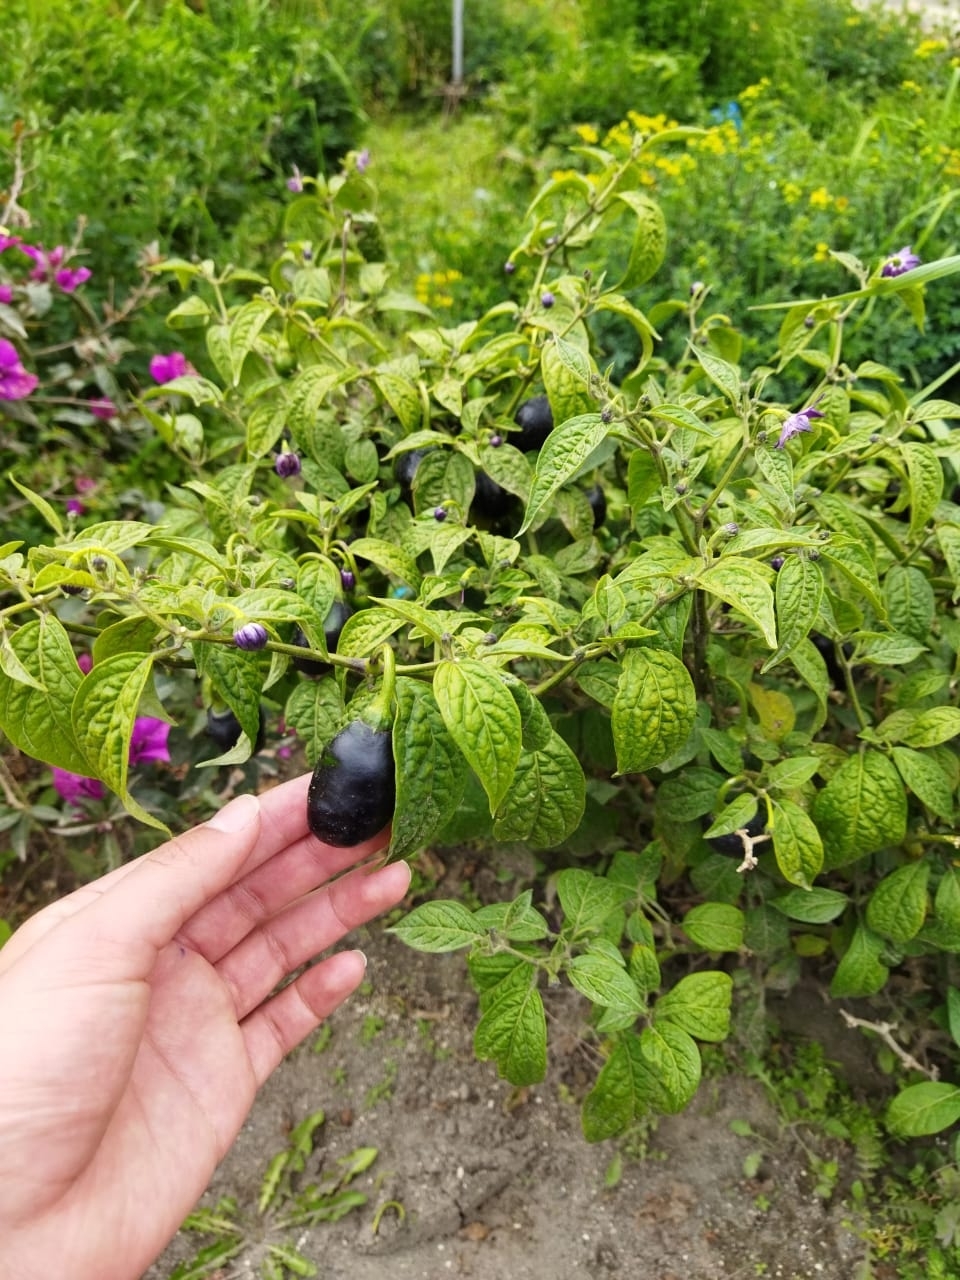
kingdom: Plantae
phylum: Tracheophyta
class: Magnoliopsida
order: Solanales
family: Solanaceae
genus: Capsicum
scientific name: Capsicum pubescens
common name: Apple chile
